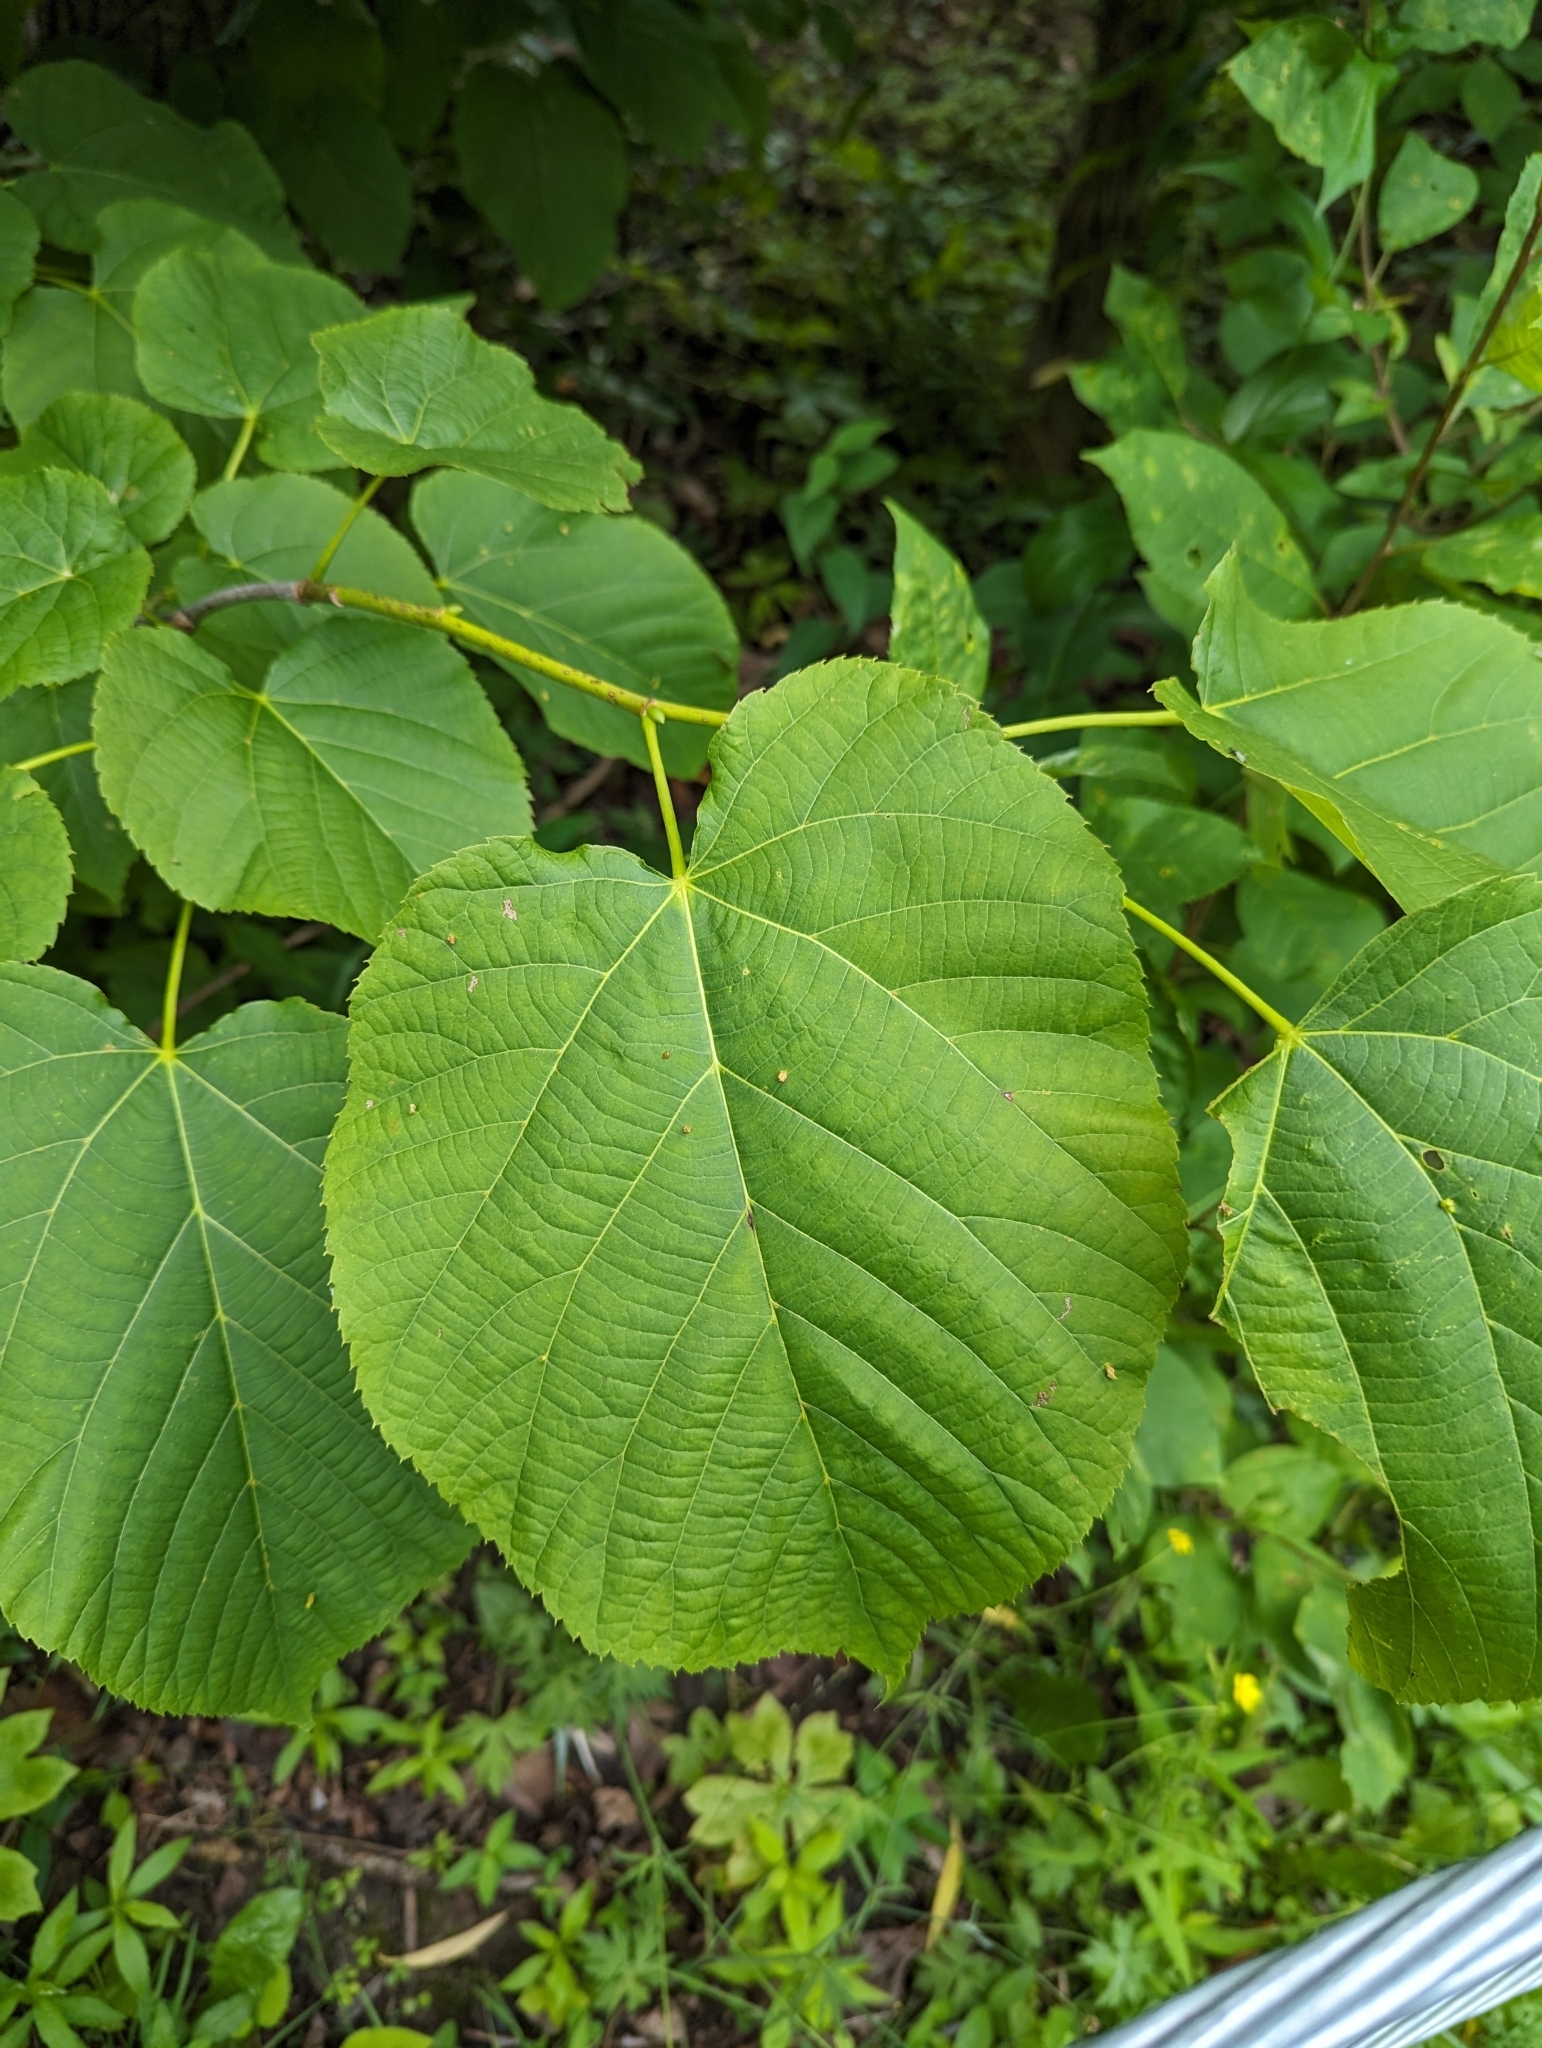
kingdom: Plantae
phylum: Tracheophyta
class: Magnoliopsida
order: Malvales
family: Malvaceae
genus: Tilia
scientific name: Tilia americana
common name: Basswood
